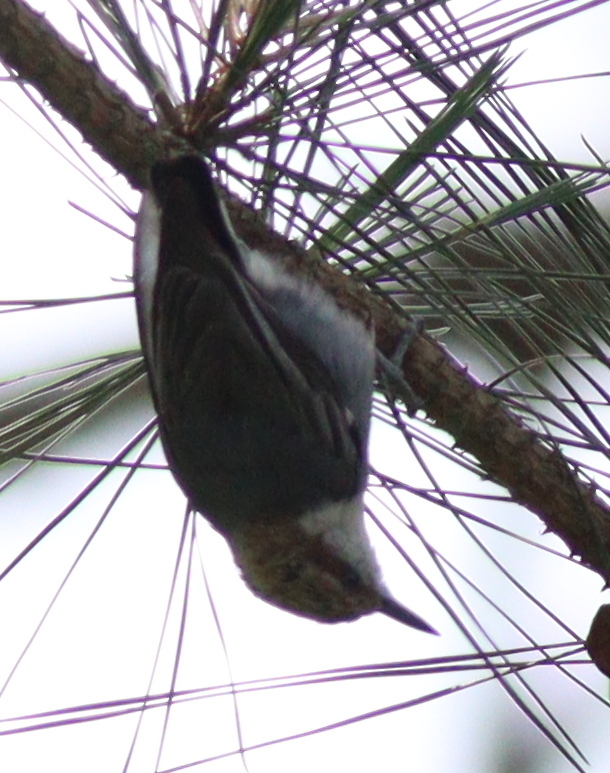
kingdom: Animalia
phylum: Chordata
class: Aves
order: Passeriformes
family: Sittidae
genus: Sitta
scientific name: Sitta pusilla
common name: Brown-headed nuthatch
